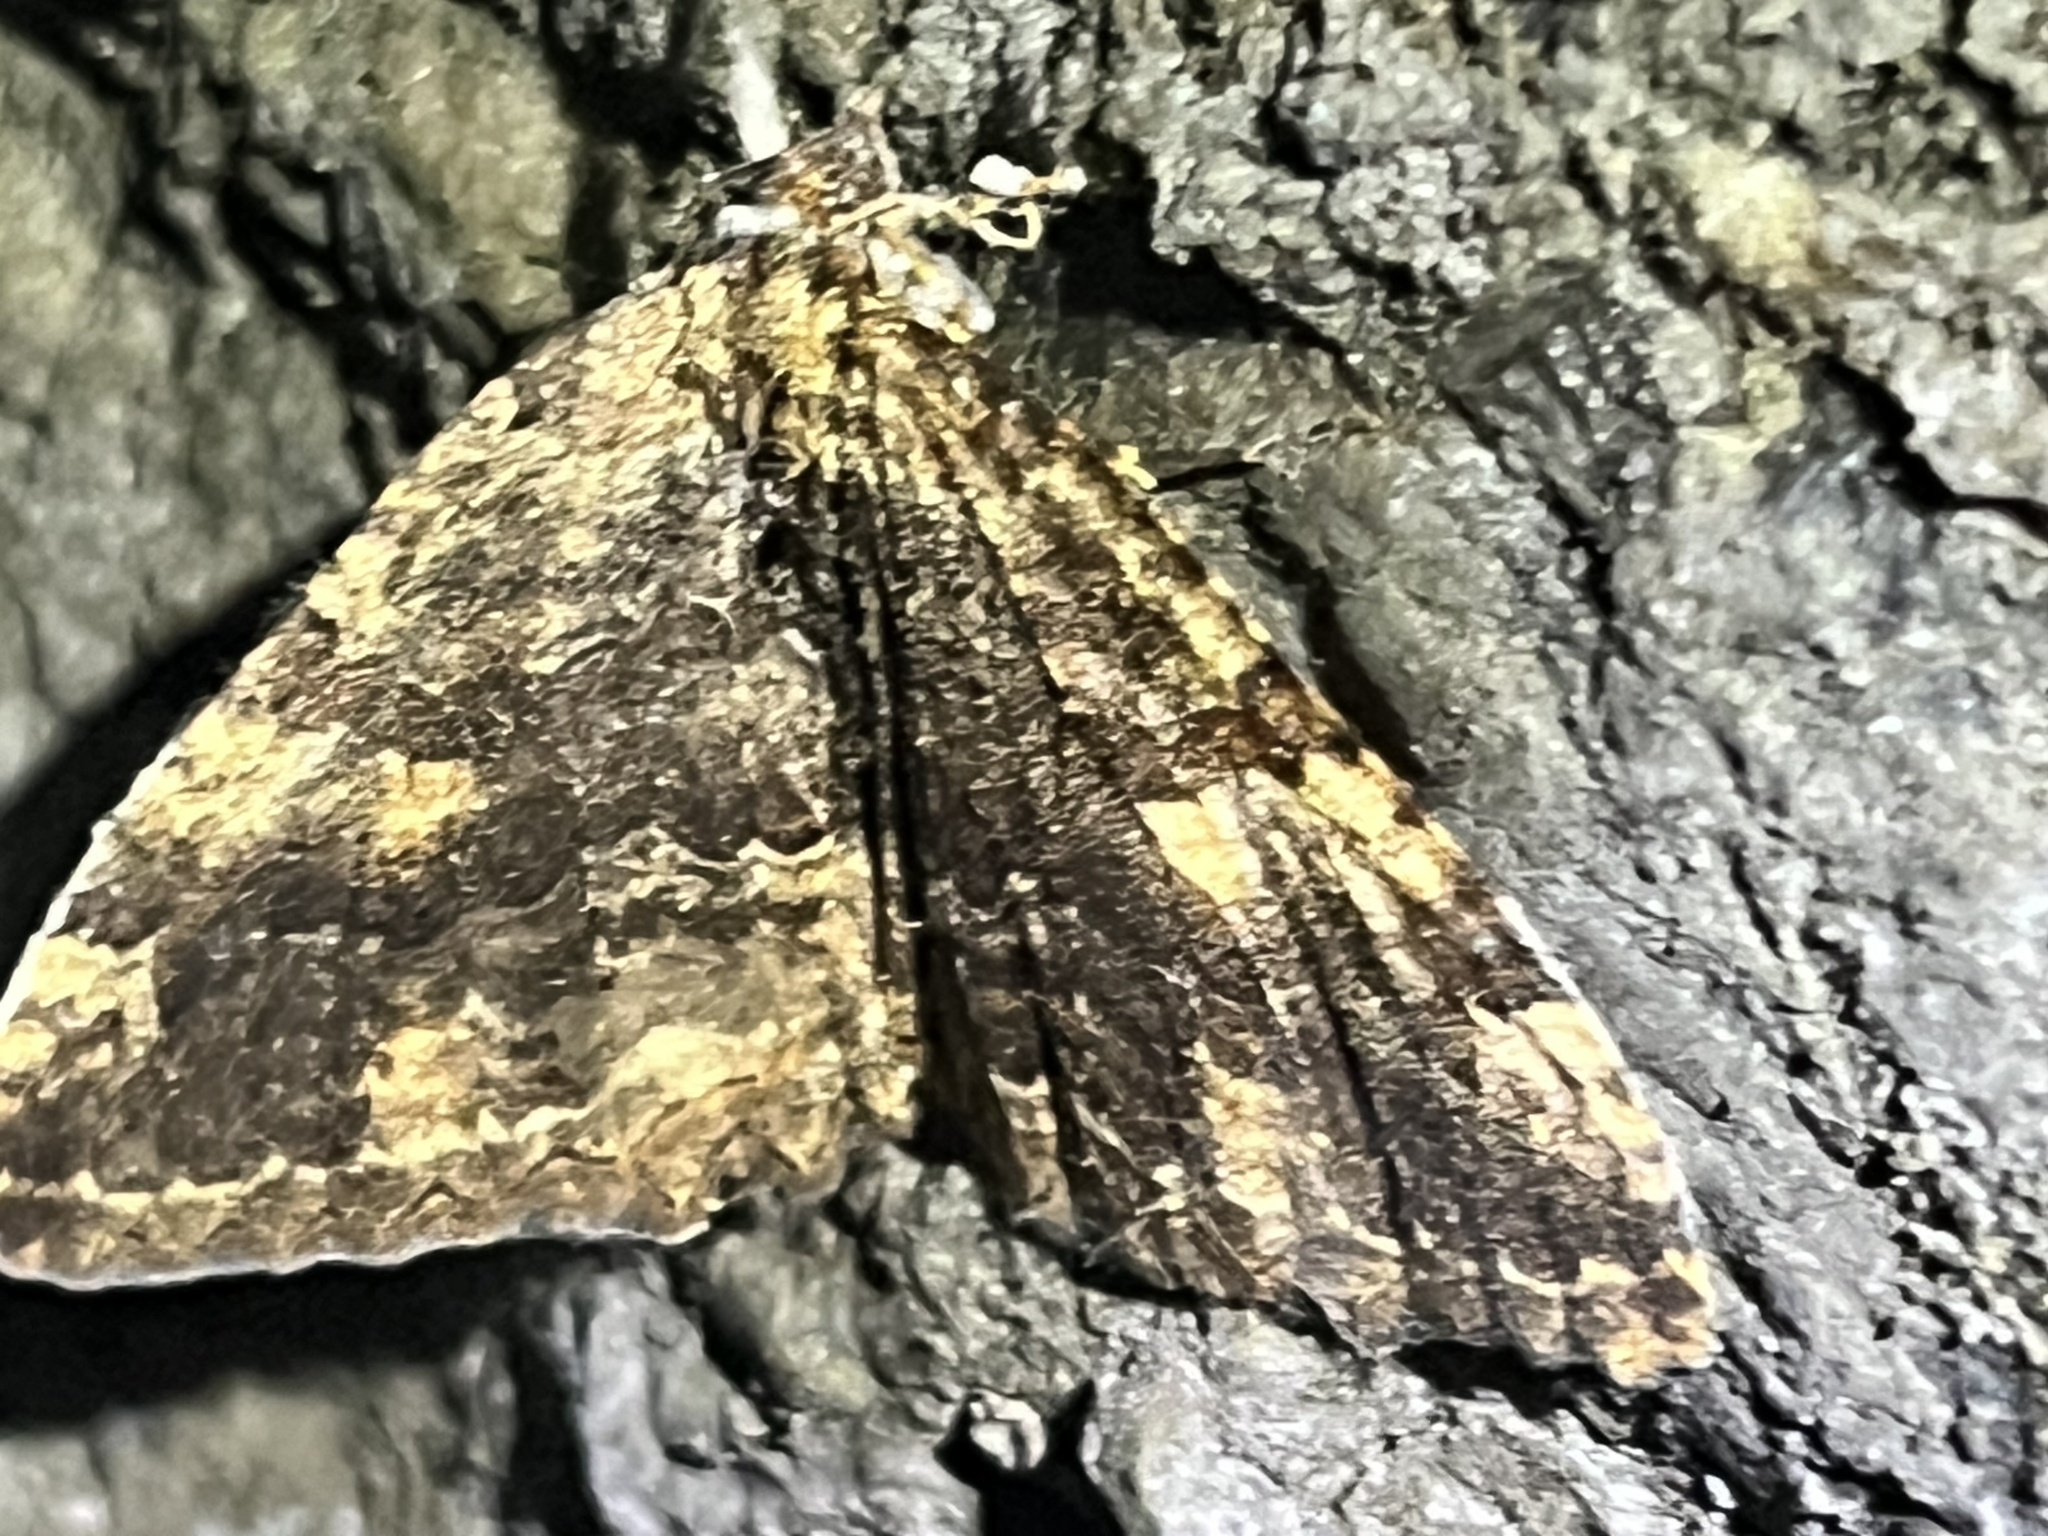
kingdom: Animalia
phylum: Arthropoda
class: Insecta
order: Lepidoptera
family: Geometridae
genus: Triphosa
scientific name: Triphosa haesitata
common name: Tissue moth
